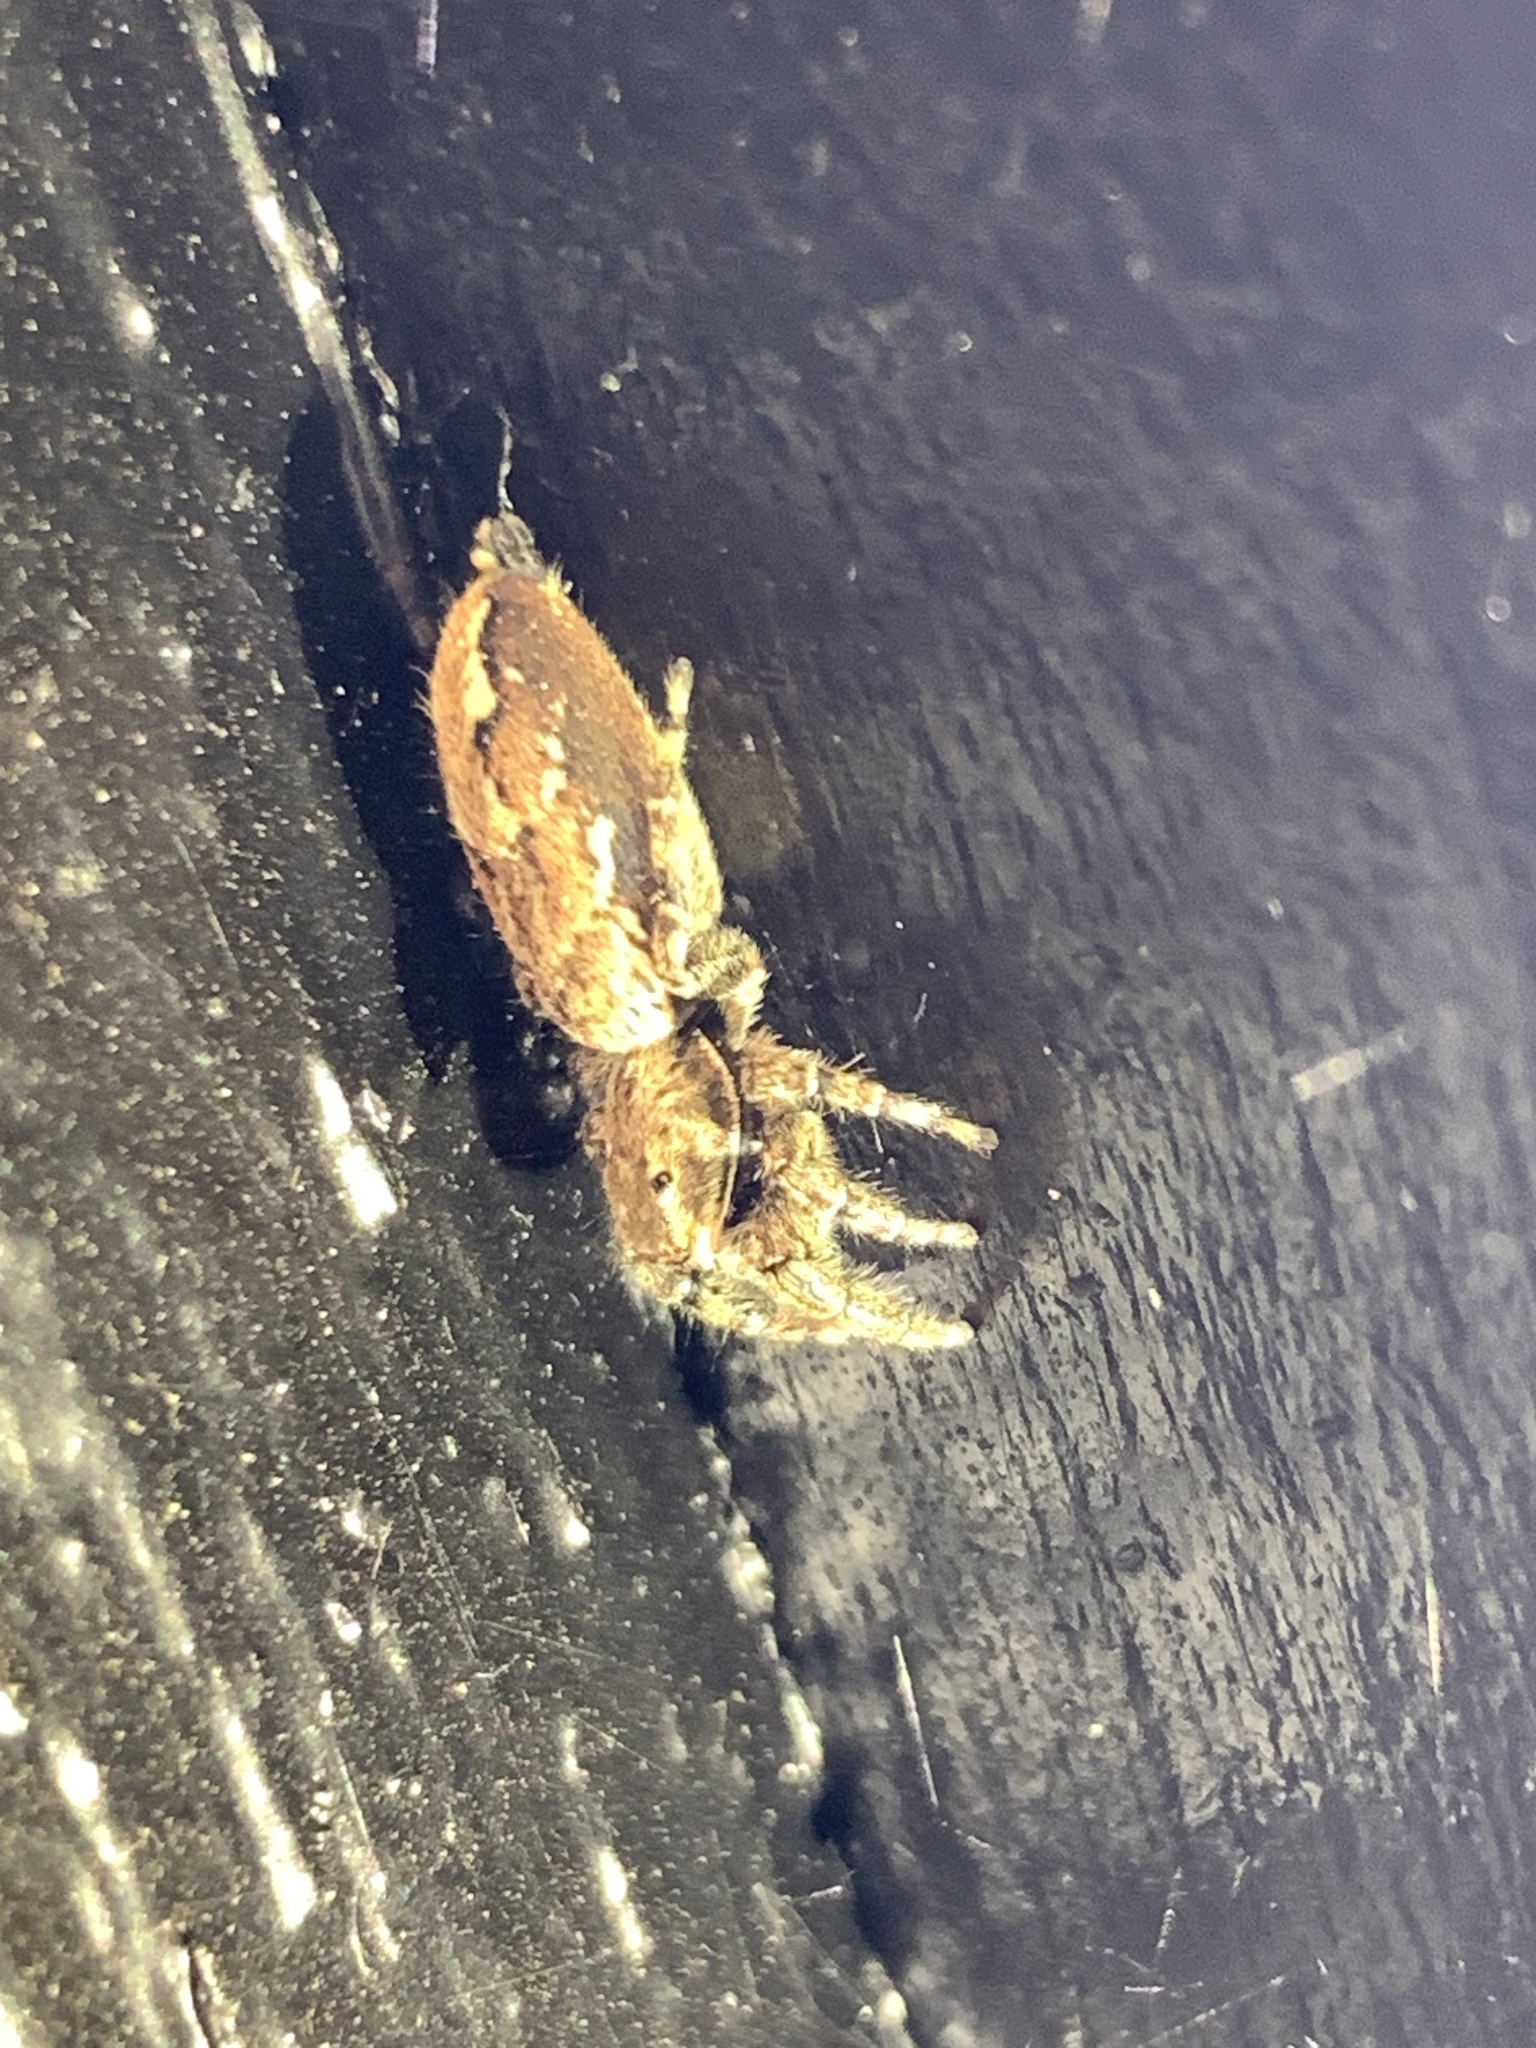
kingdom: Animalia
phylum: Arthropoda
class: Arachnida
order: Araneae
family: Salticidae
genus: Marpissa
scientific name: Marpissa muscosa
